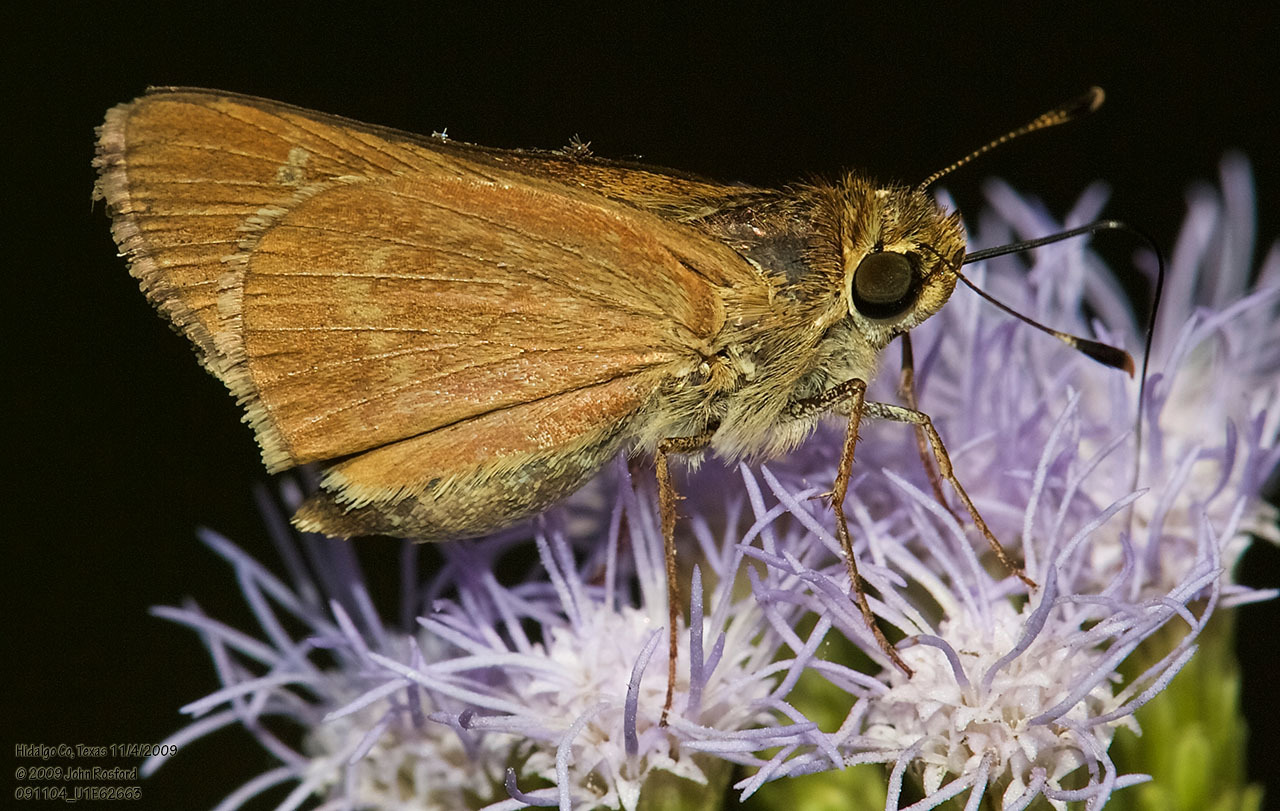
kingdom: Animalia
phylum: Arthropoda
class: Insecta
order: Lepidoptera
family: Hesperiidae
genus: Mellana
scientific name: Mellana eulogius
